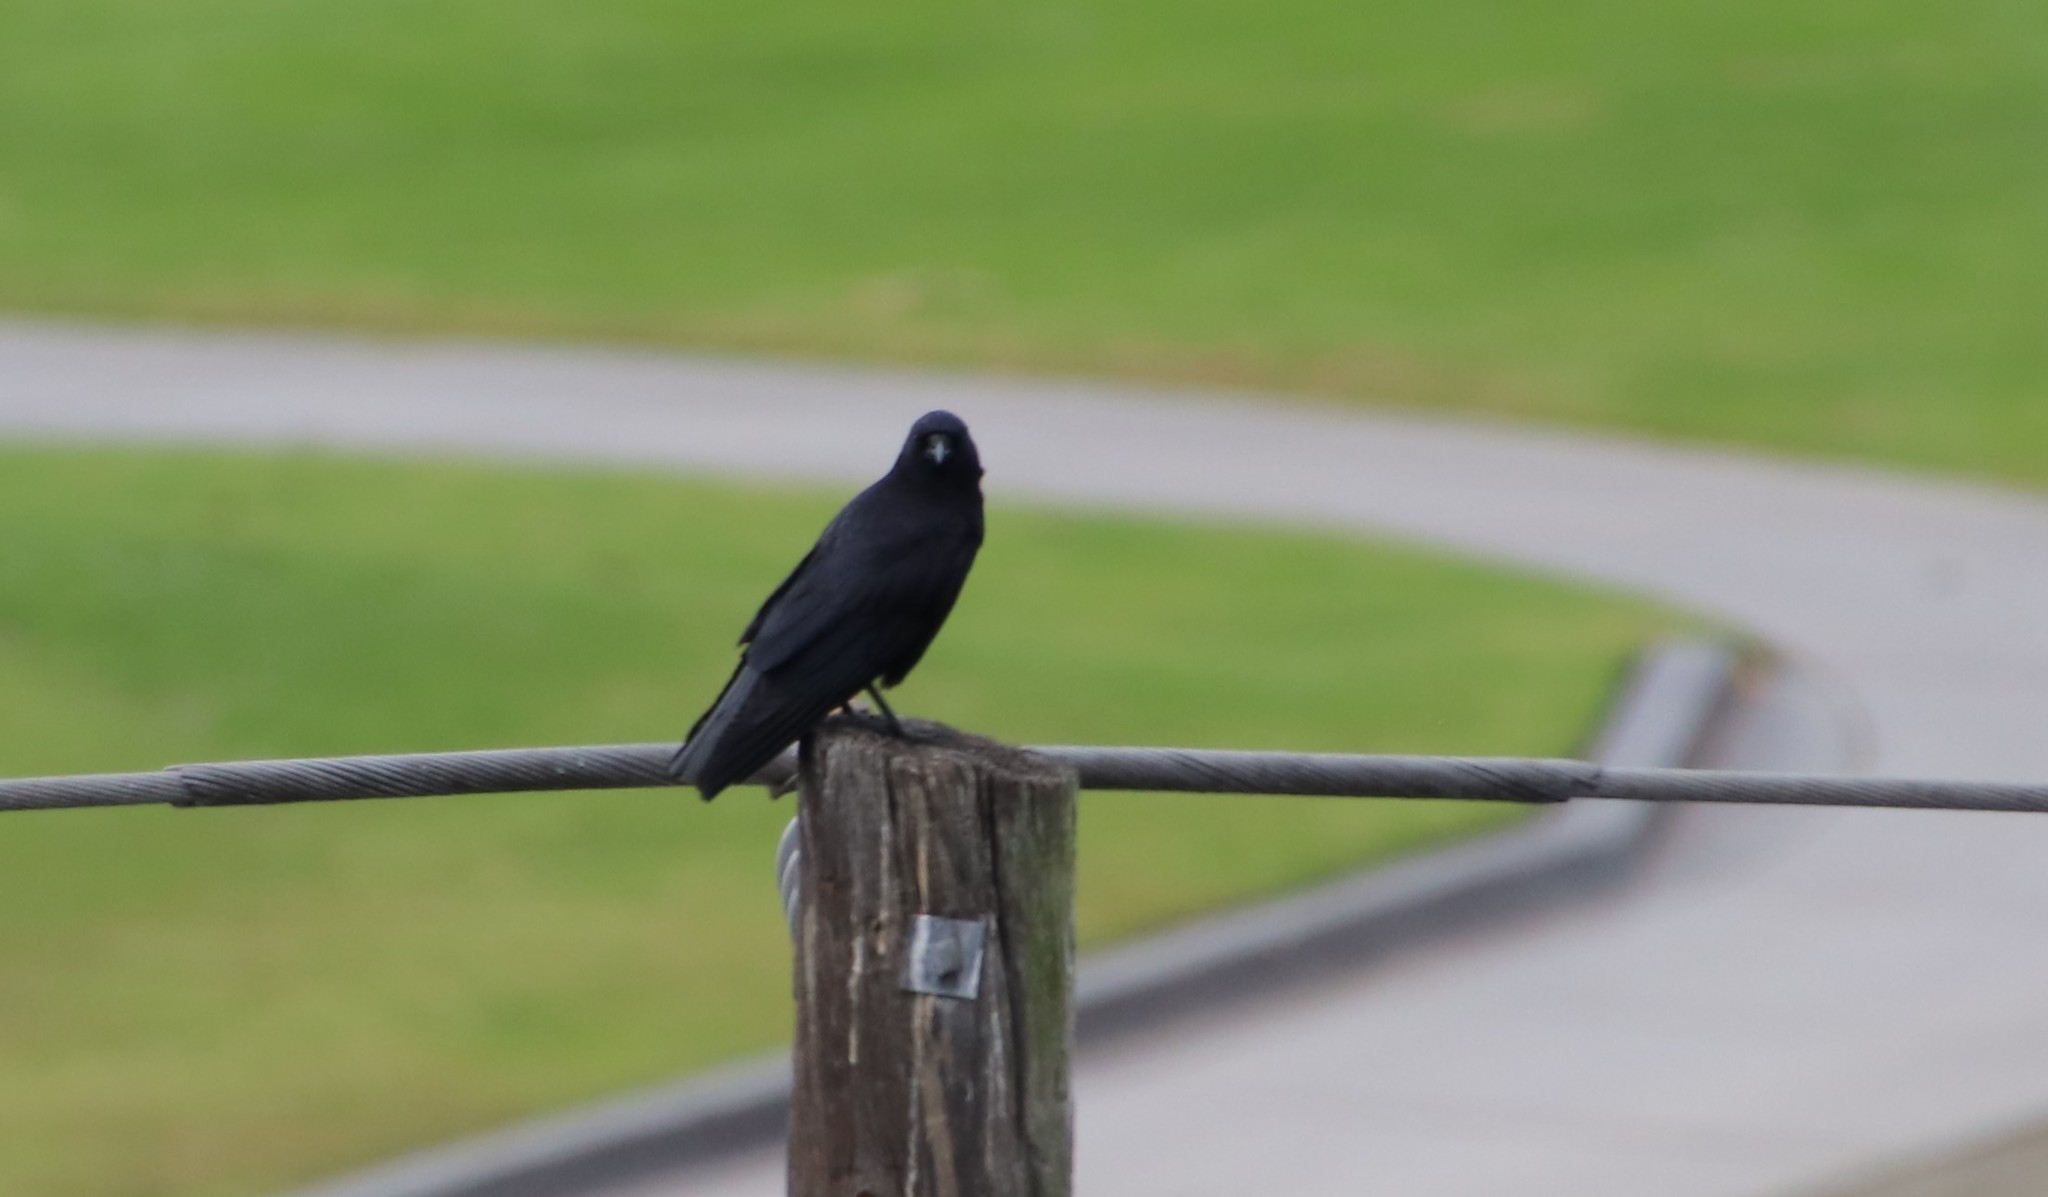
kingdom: Animalia
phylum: Chordata
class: Aves
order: Passeriformes
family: Corvidae
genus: Corvus
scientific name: Corvus brachyrhynchos
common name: American crow
